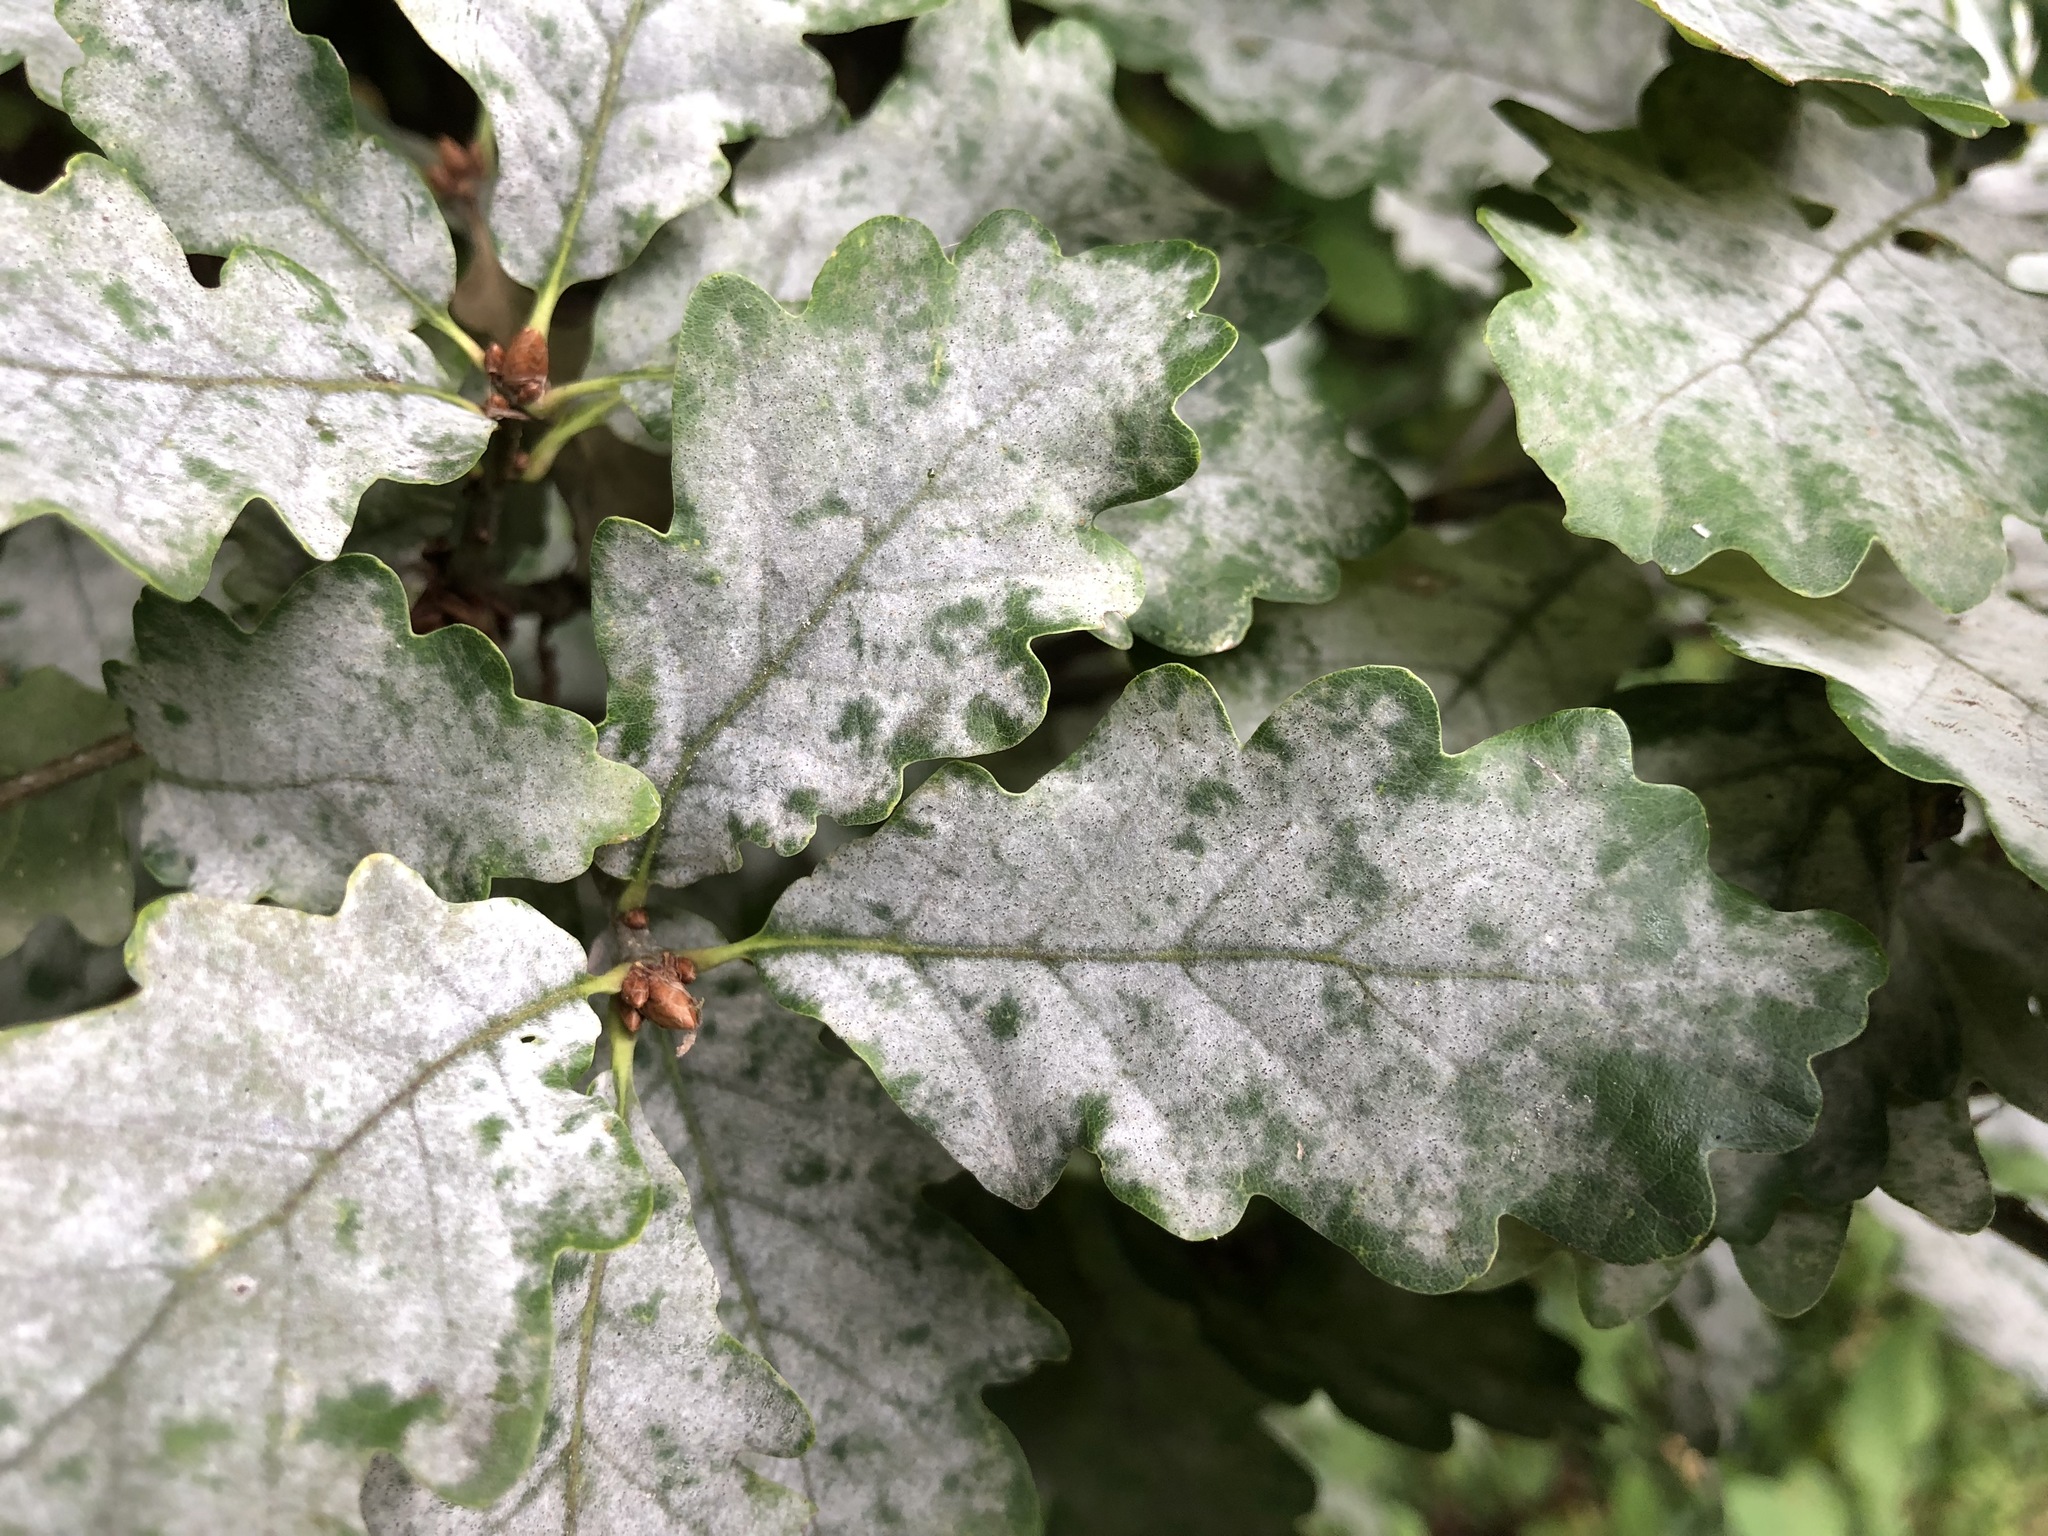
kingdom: Fungi
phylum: Ascomycota
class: Leotiomycetes
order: Helotiales
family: Erysiphaceae
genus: Erysiphe
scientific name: Erysiphe
